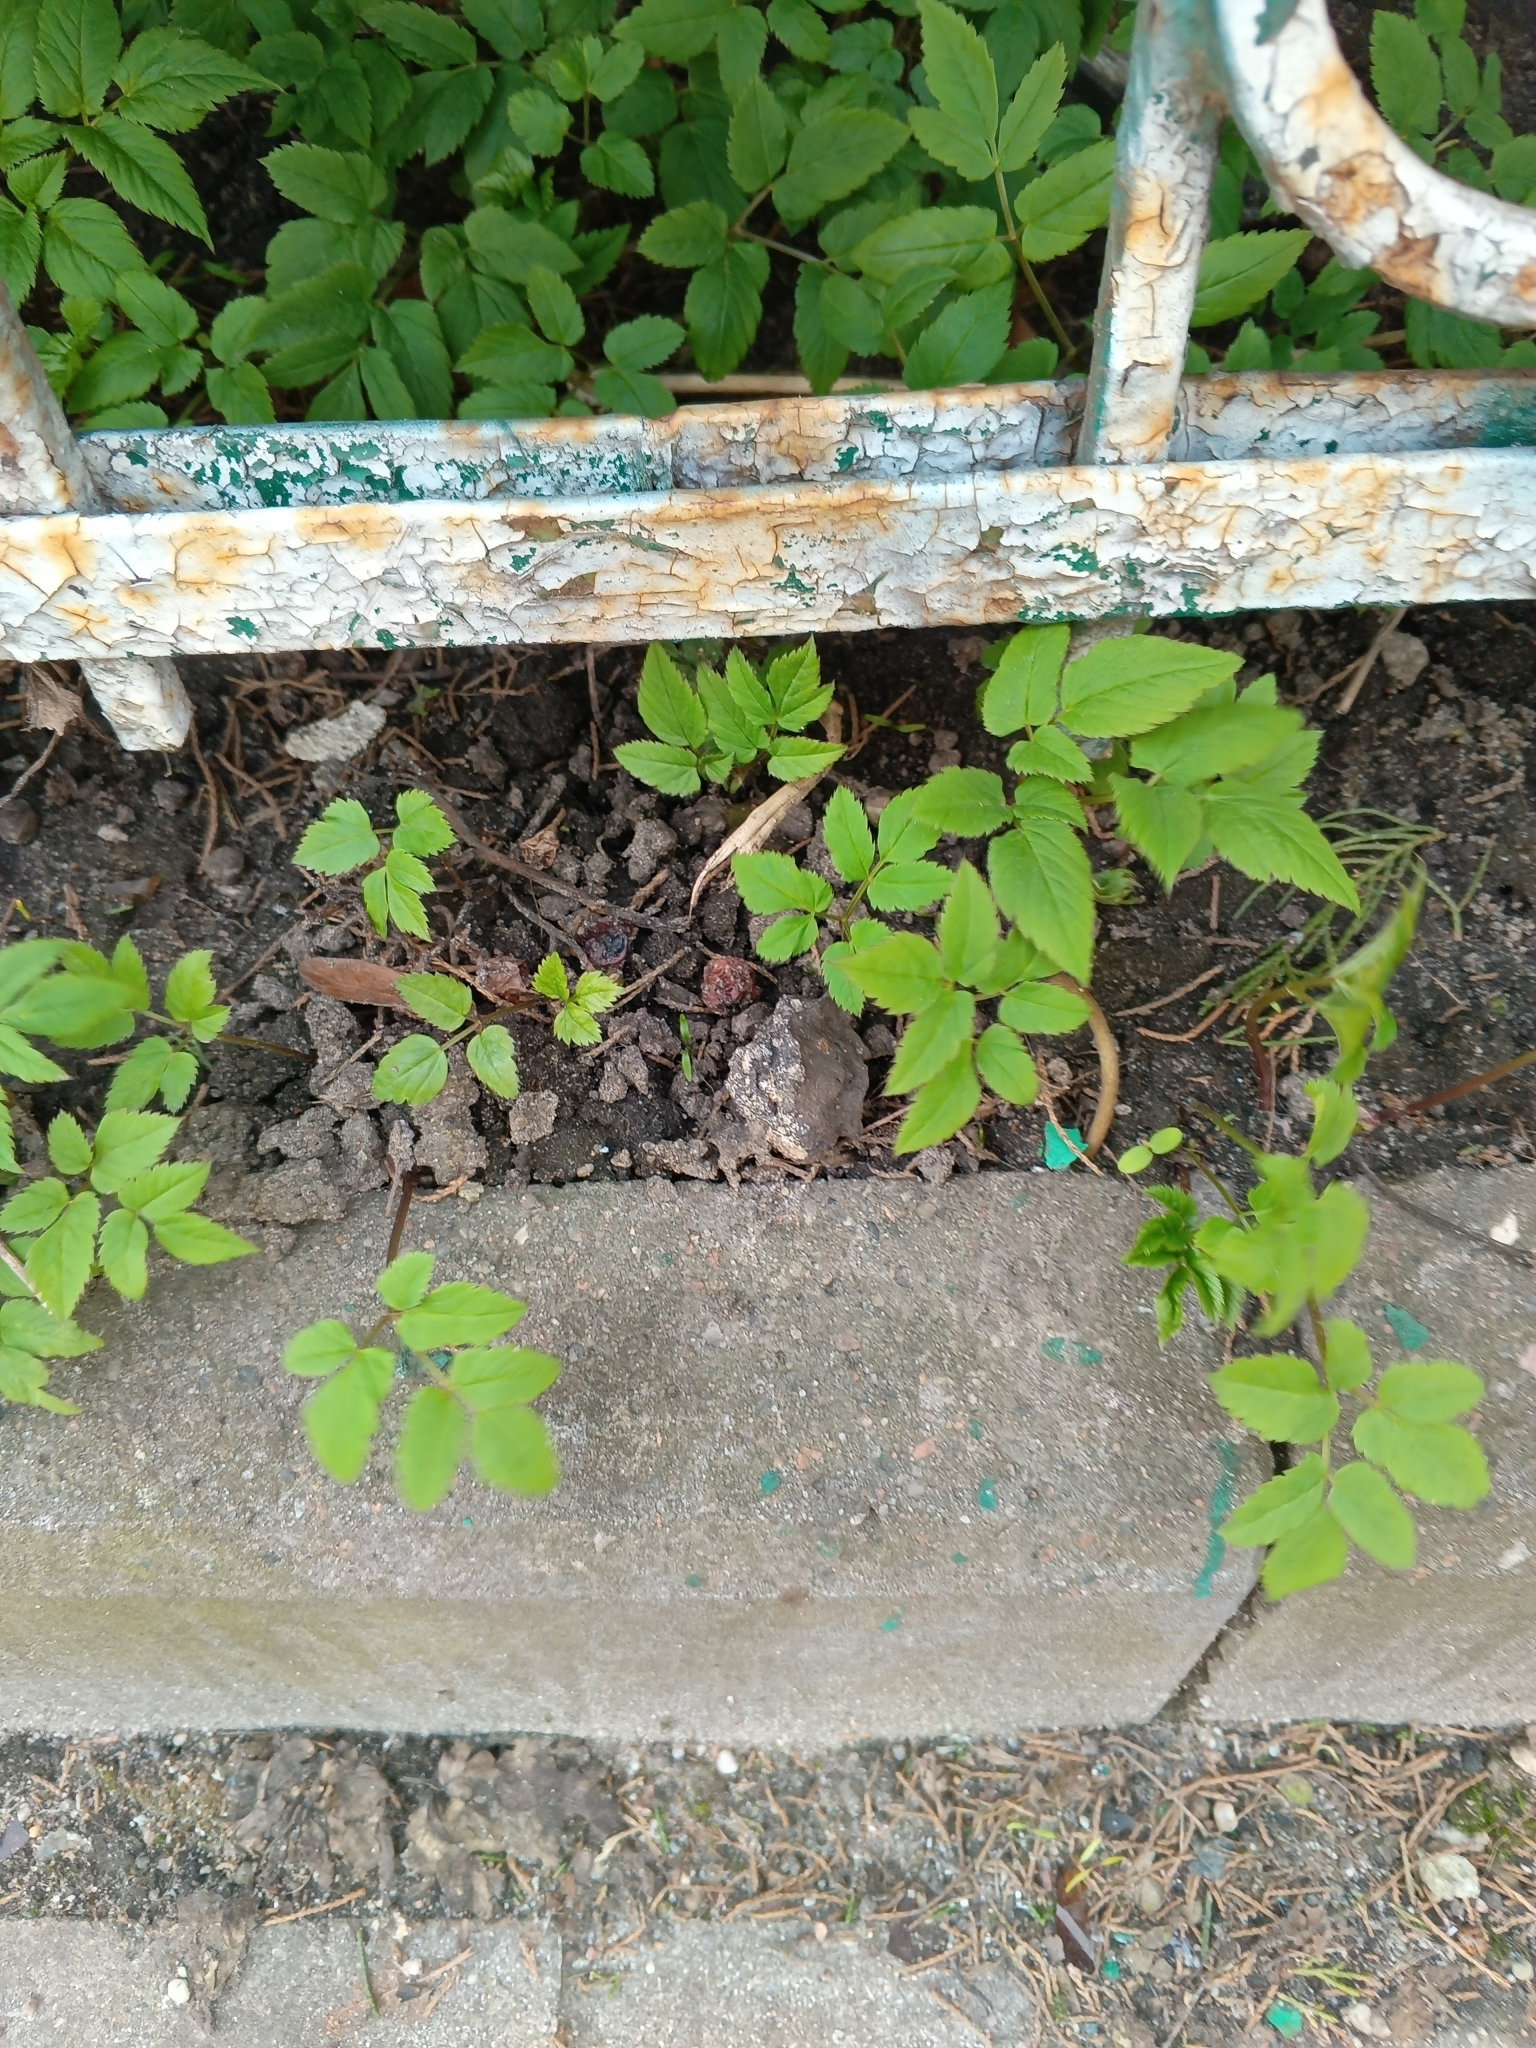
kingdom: Plantae
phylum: Tracheophyta
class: Magnoliopsida
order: Apiales
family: Apiaceae
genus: Aegopodium
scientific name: Aegopodium podagraria
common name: Ground-elder
